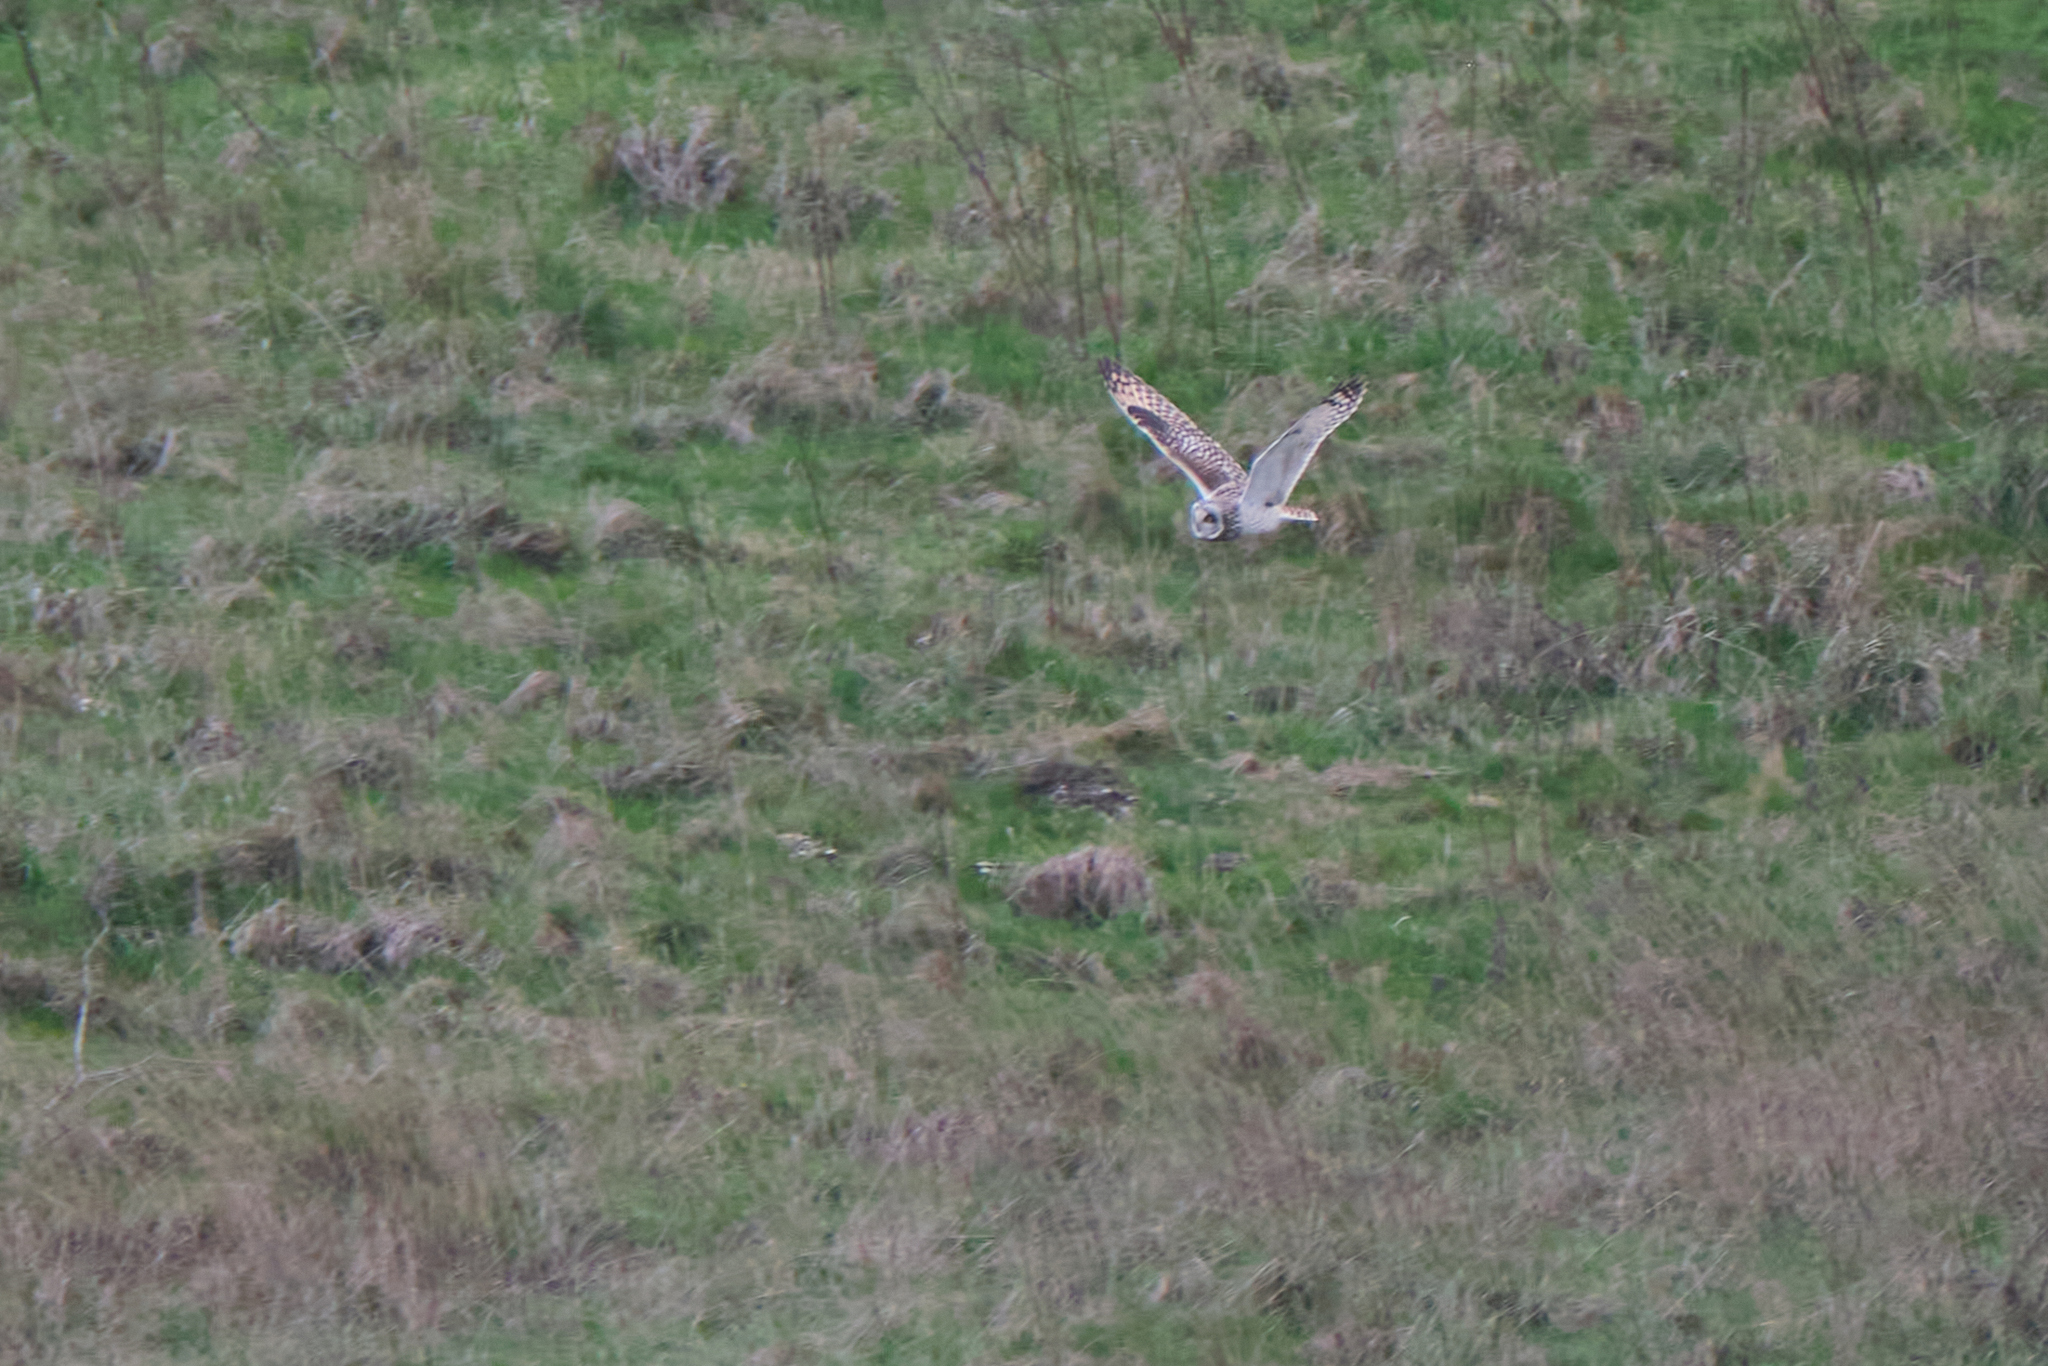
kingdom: Animalia
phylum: Chordata
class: Aves
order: Strigiformes
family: Strigidae
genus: Asio
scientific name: Asio flammeus
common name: Short-eared owl
